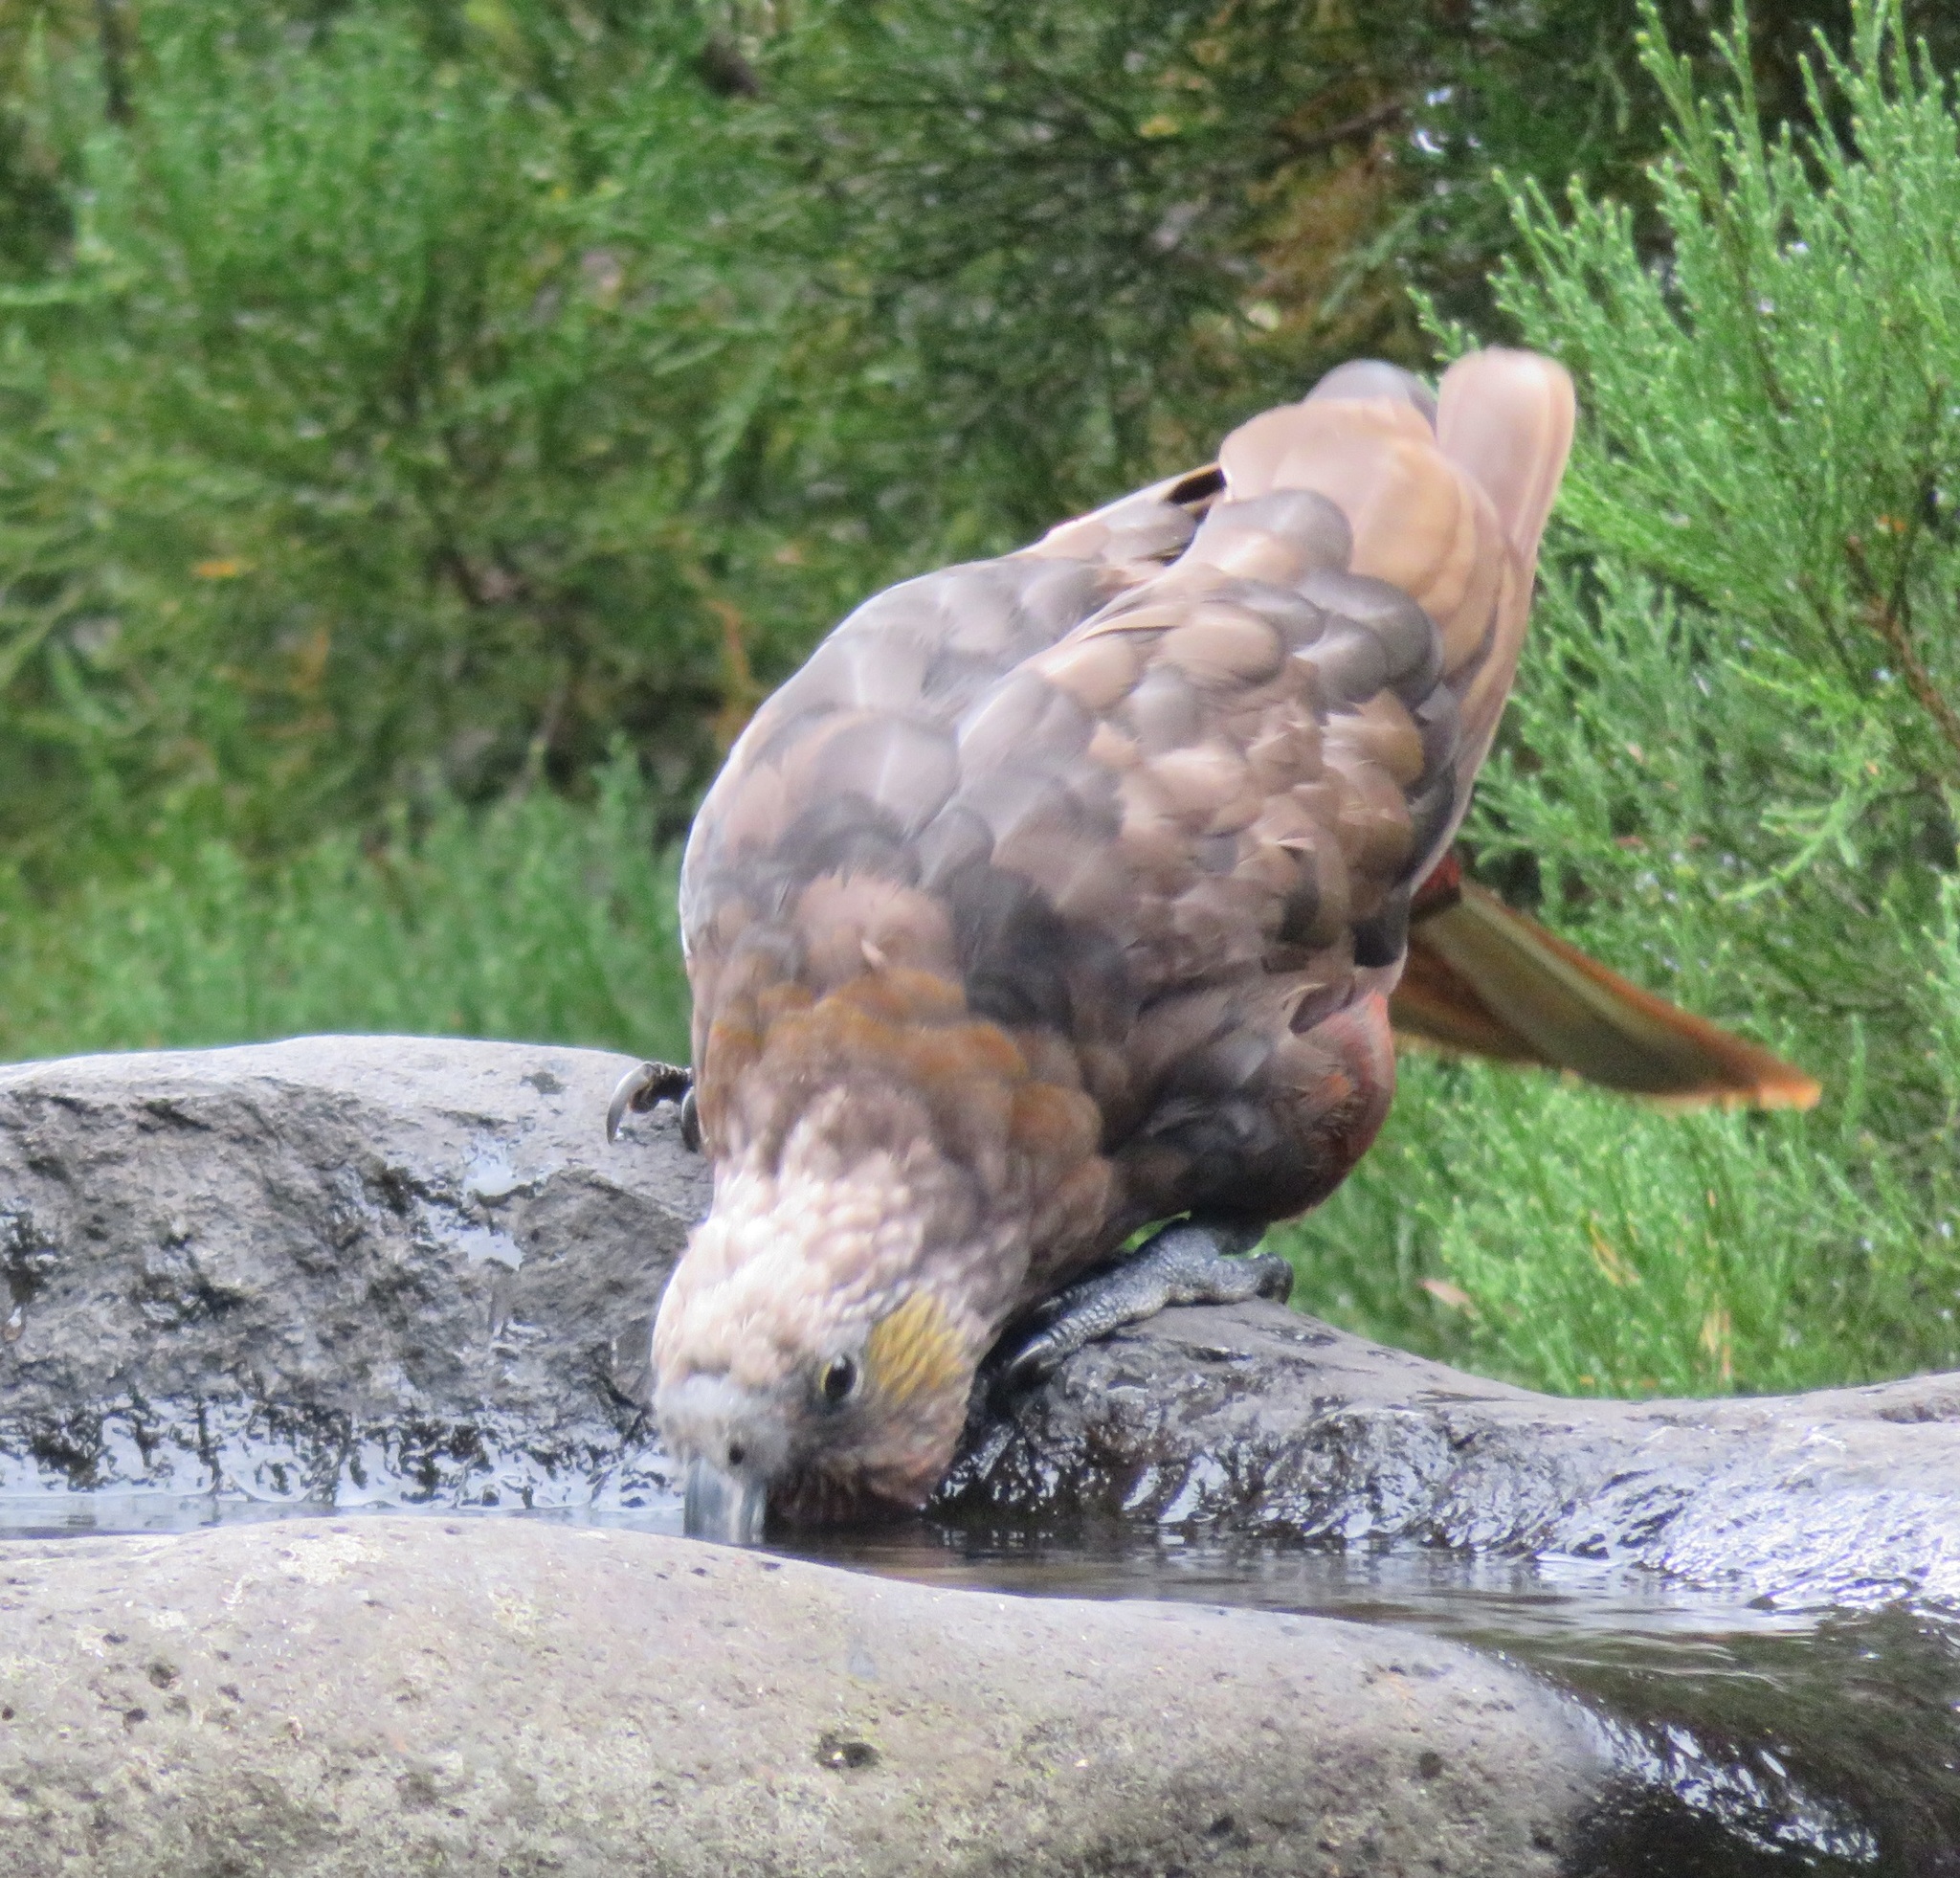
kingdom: Animalia
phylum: Chordata
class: Aves
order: Psittaciformes
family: Psittacidae
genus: Nestor
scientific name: Nestor meridionalis
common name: New zealand kaka
